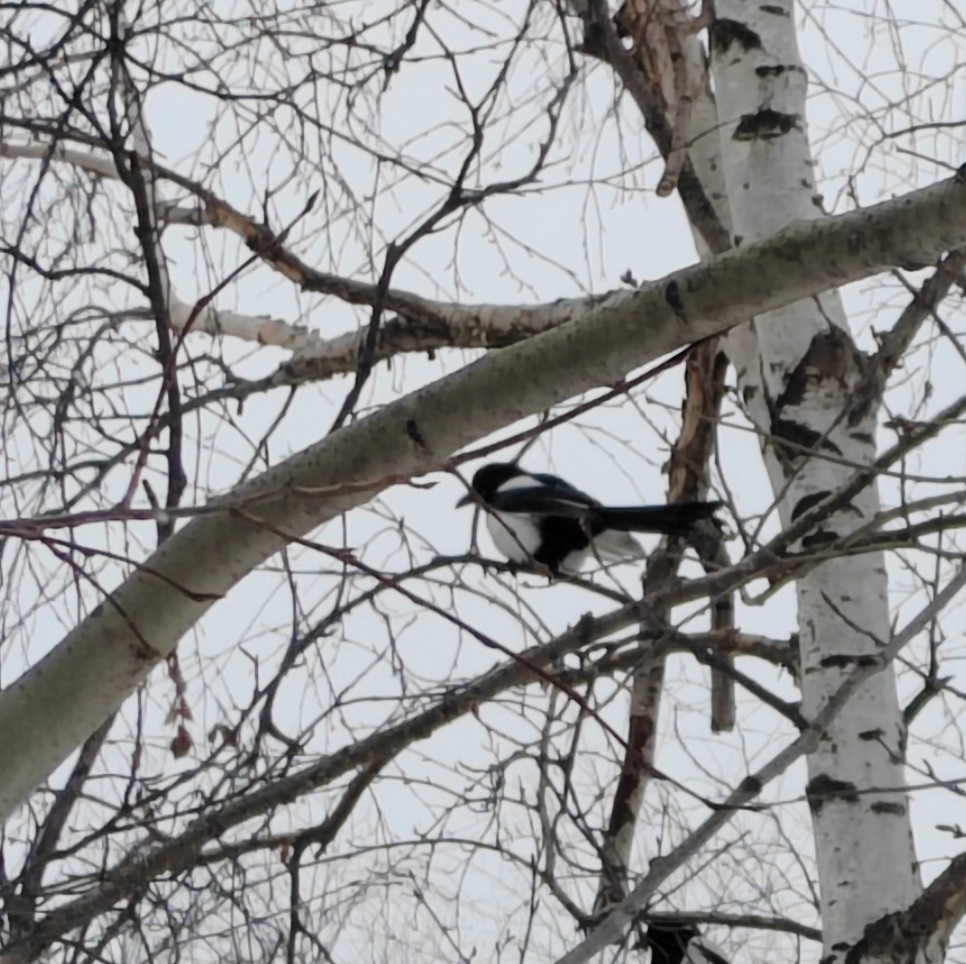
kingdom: Animalia
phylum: Chordata
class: Aves
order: Passeriformes
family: Corvidae
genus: Pica
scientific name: Pica pica
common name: Eurasian magpie
